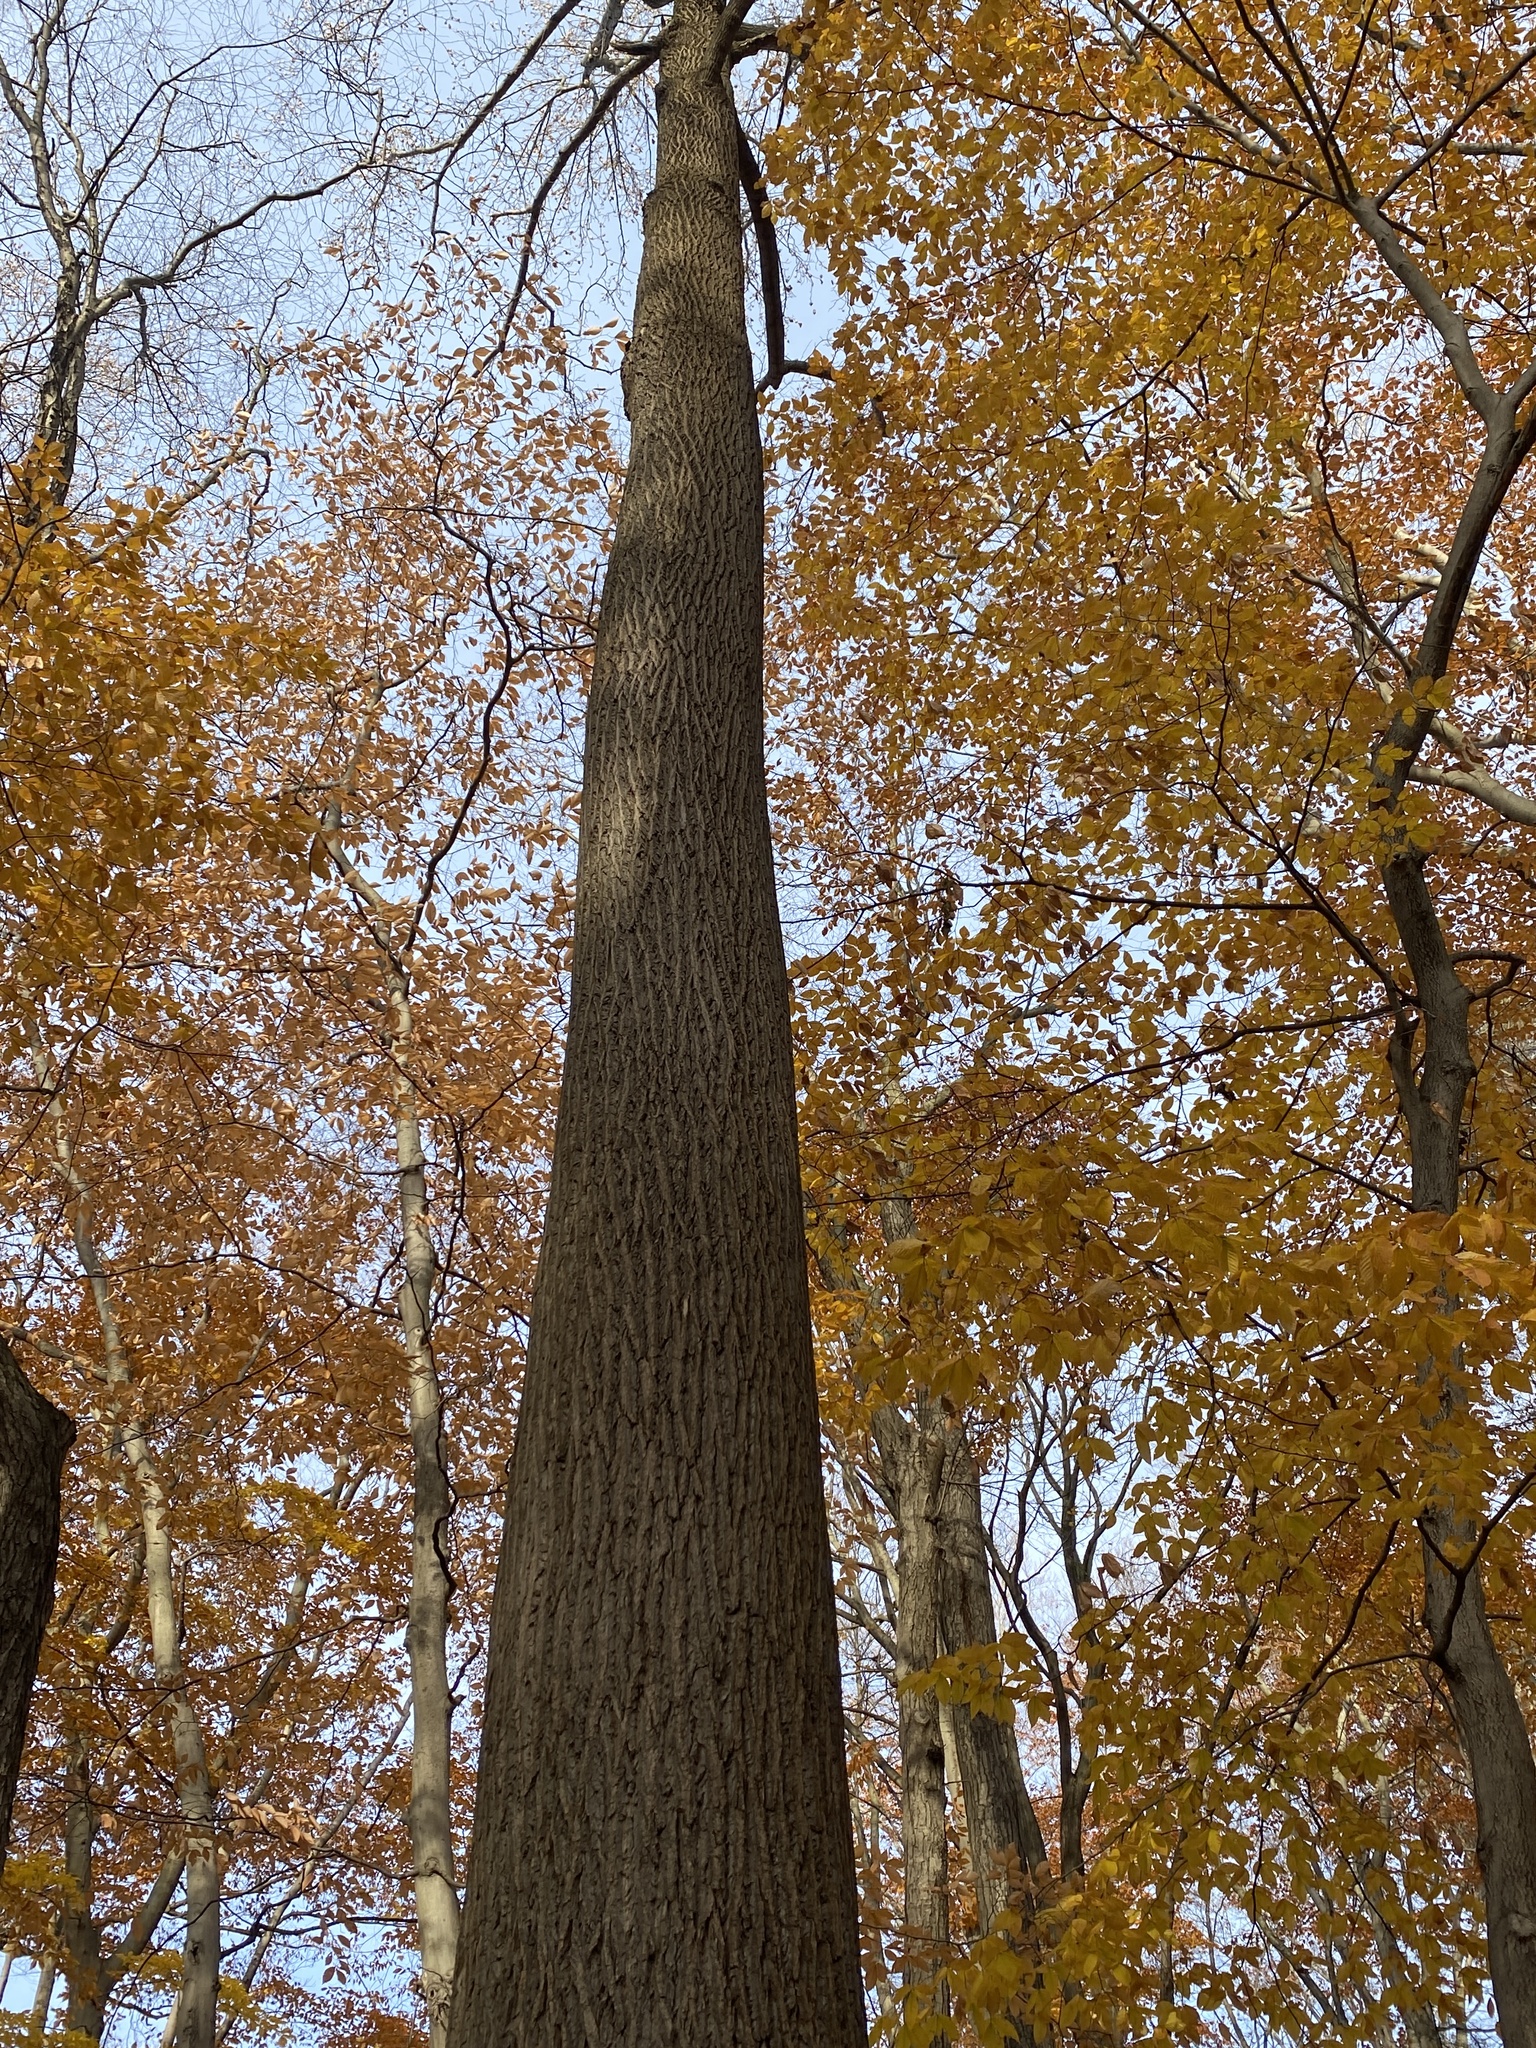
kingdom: Plantae
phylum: Tracheophyta
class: Magnoliopsida
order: Magnoliales
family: Magnoliaceae
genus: Liriodendron
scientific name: Liriodendron tulipifera
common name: Tulip tree
